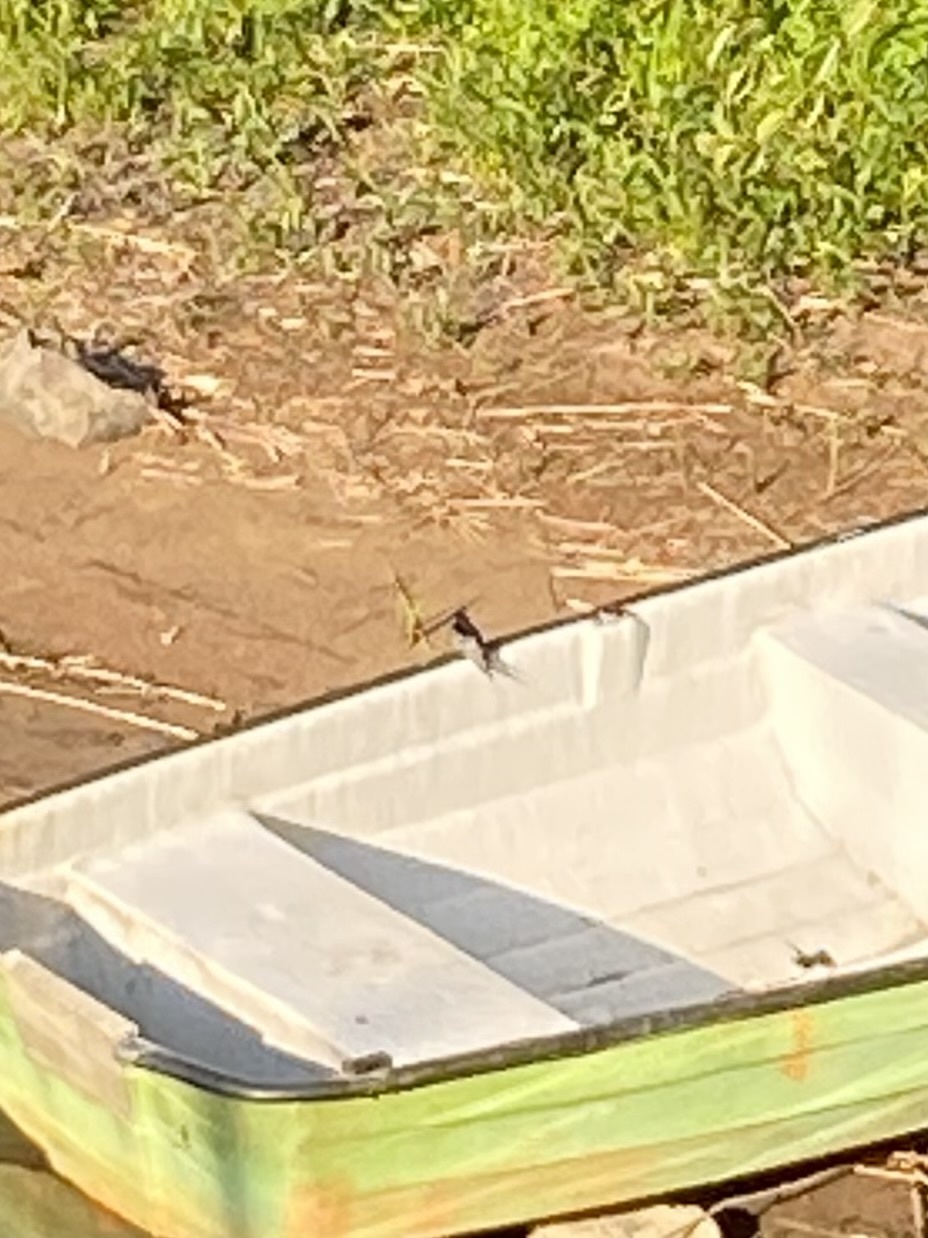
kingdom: Animalia
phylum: Chordata
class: Aves
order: Passeriformes
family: Hirundinidae
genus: Hirundo
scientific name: Hirundo rustica
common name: Barn swallow
